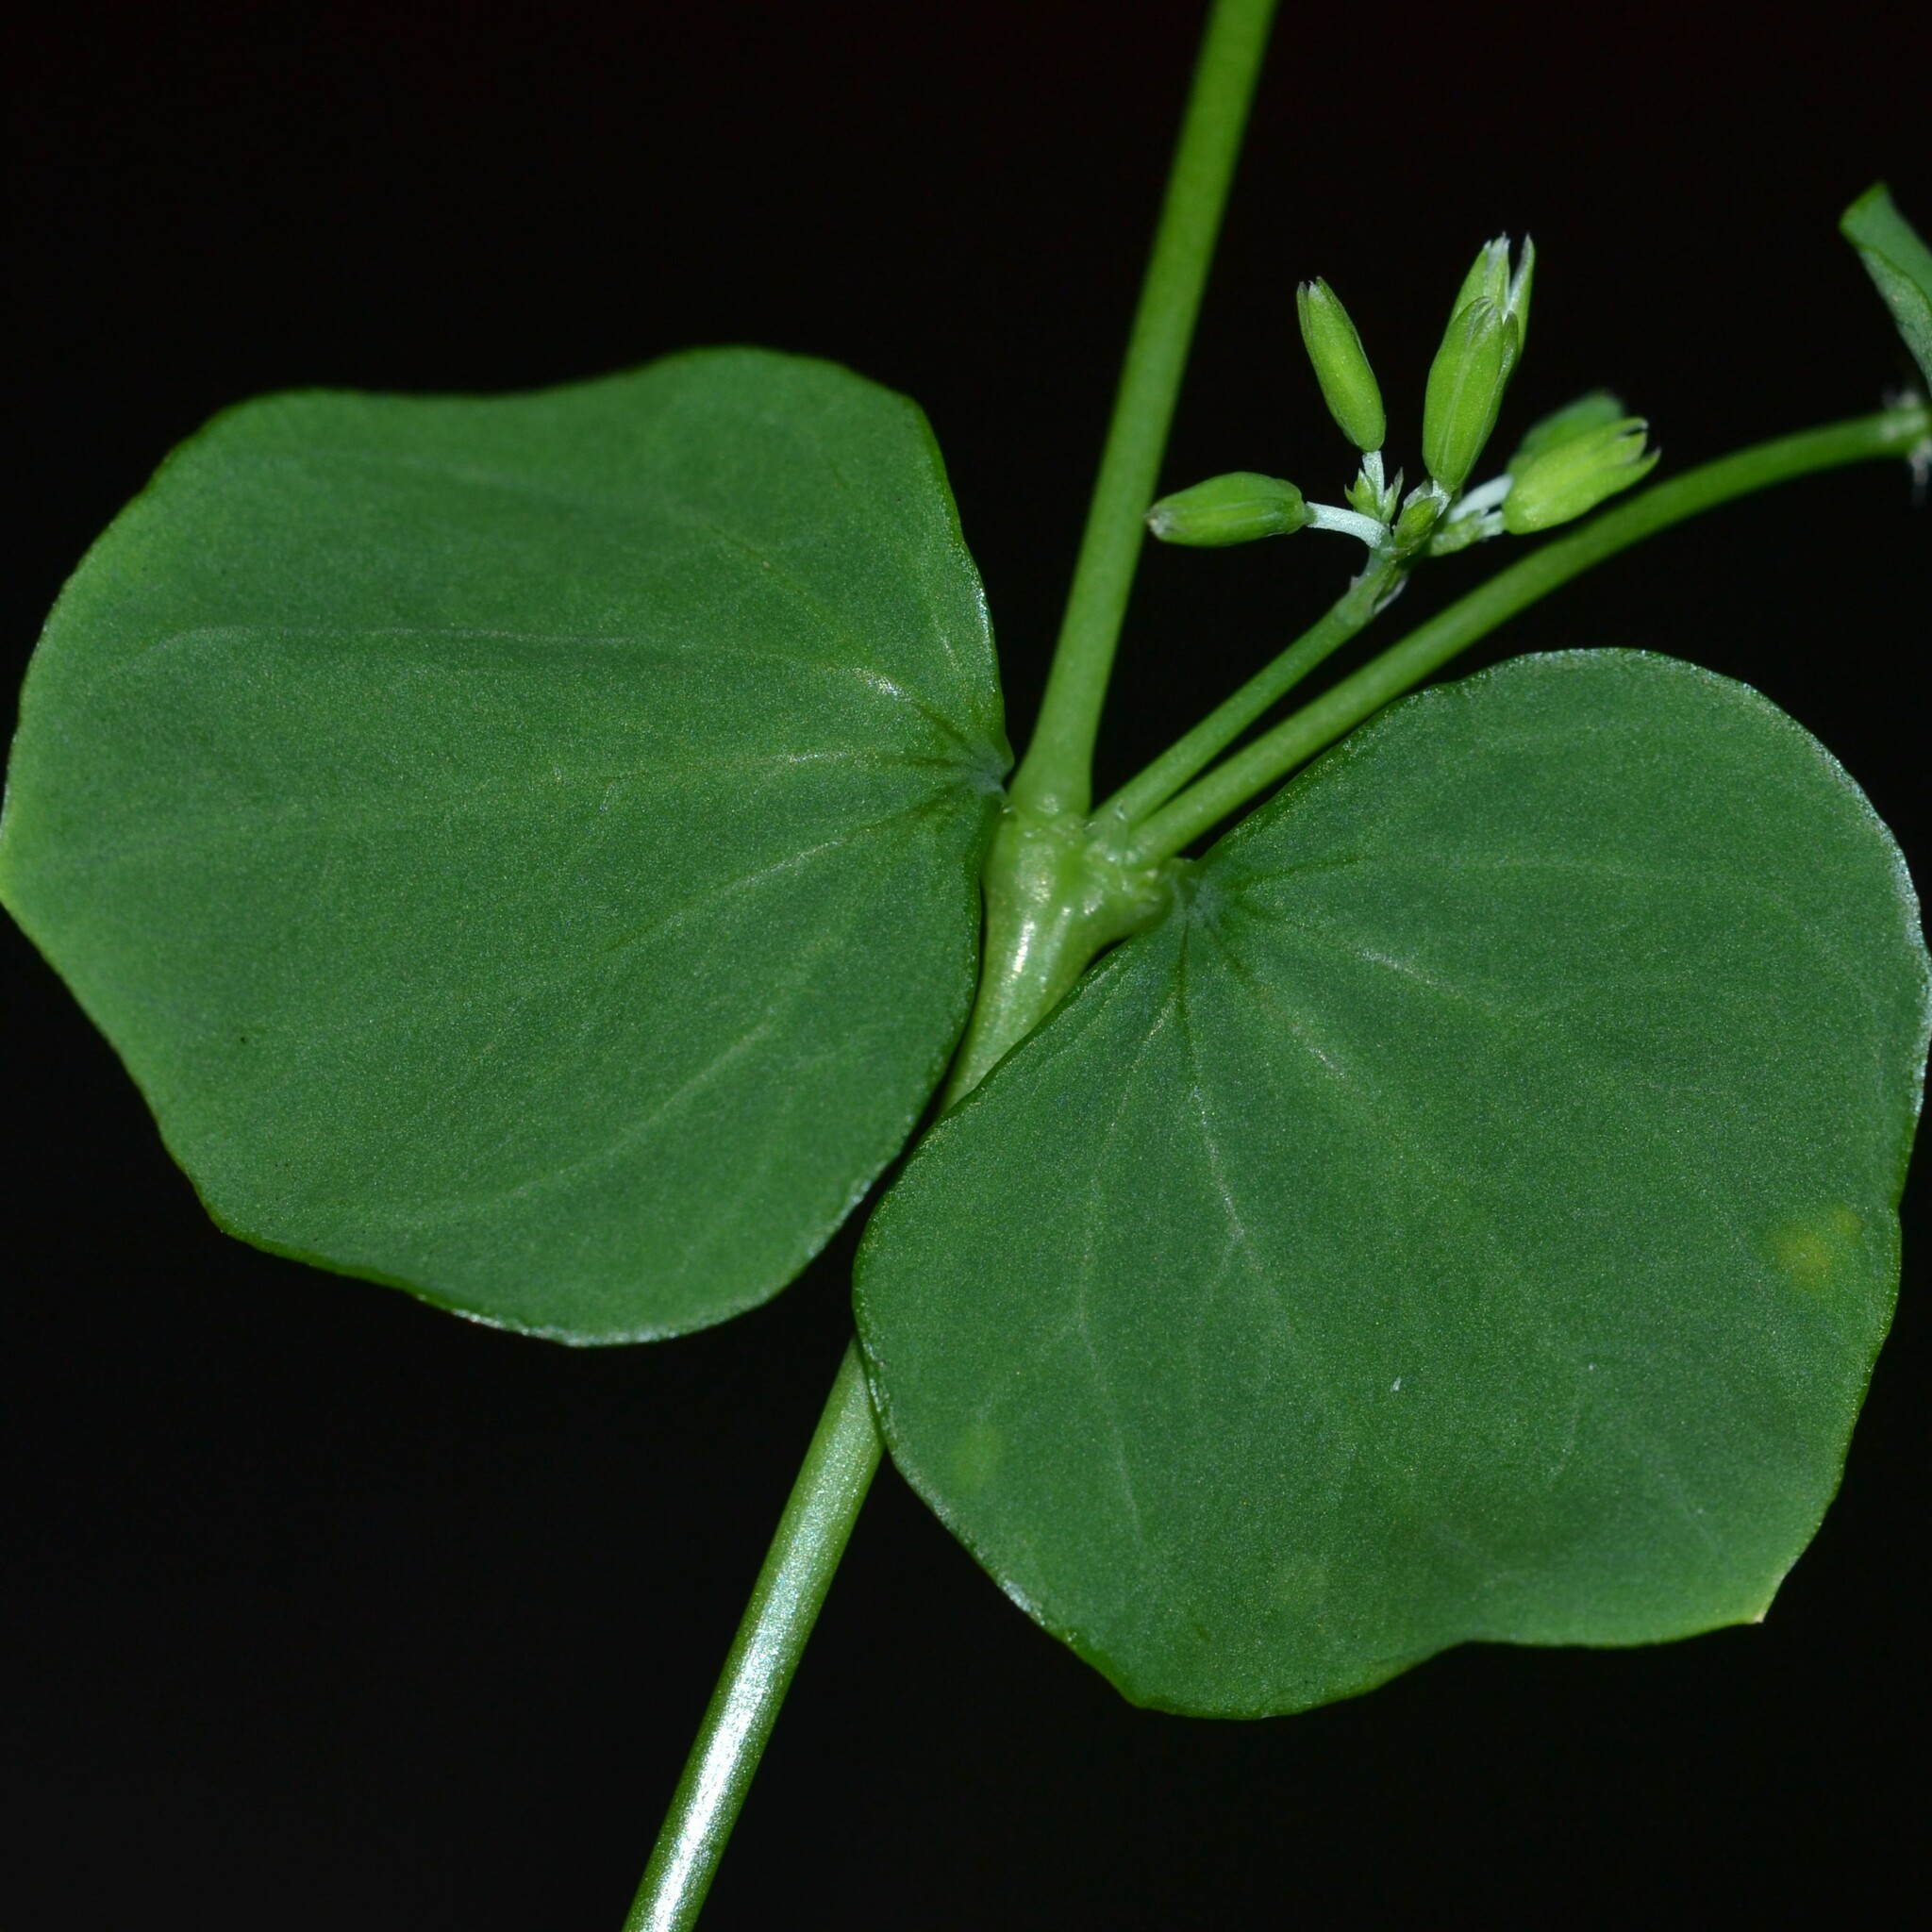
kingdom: Plantae
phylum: Tracheophyta
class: Magnoliopsida
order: Caryophyllales
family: Caryophyllaceae
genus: Drymaria
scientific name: Drymaria cordata
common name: Whitesnow
